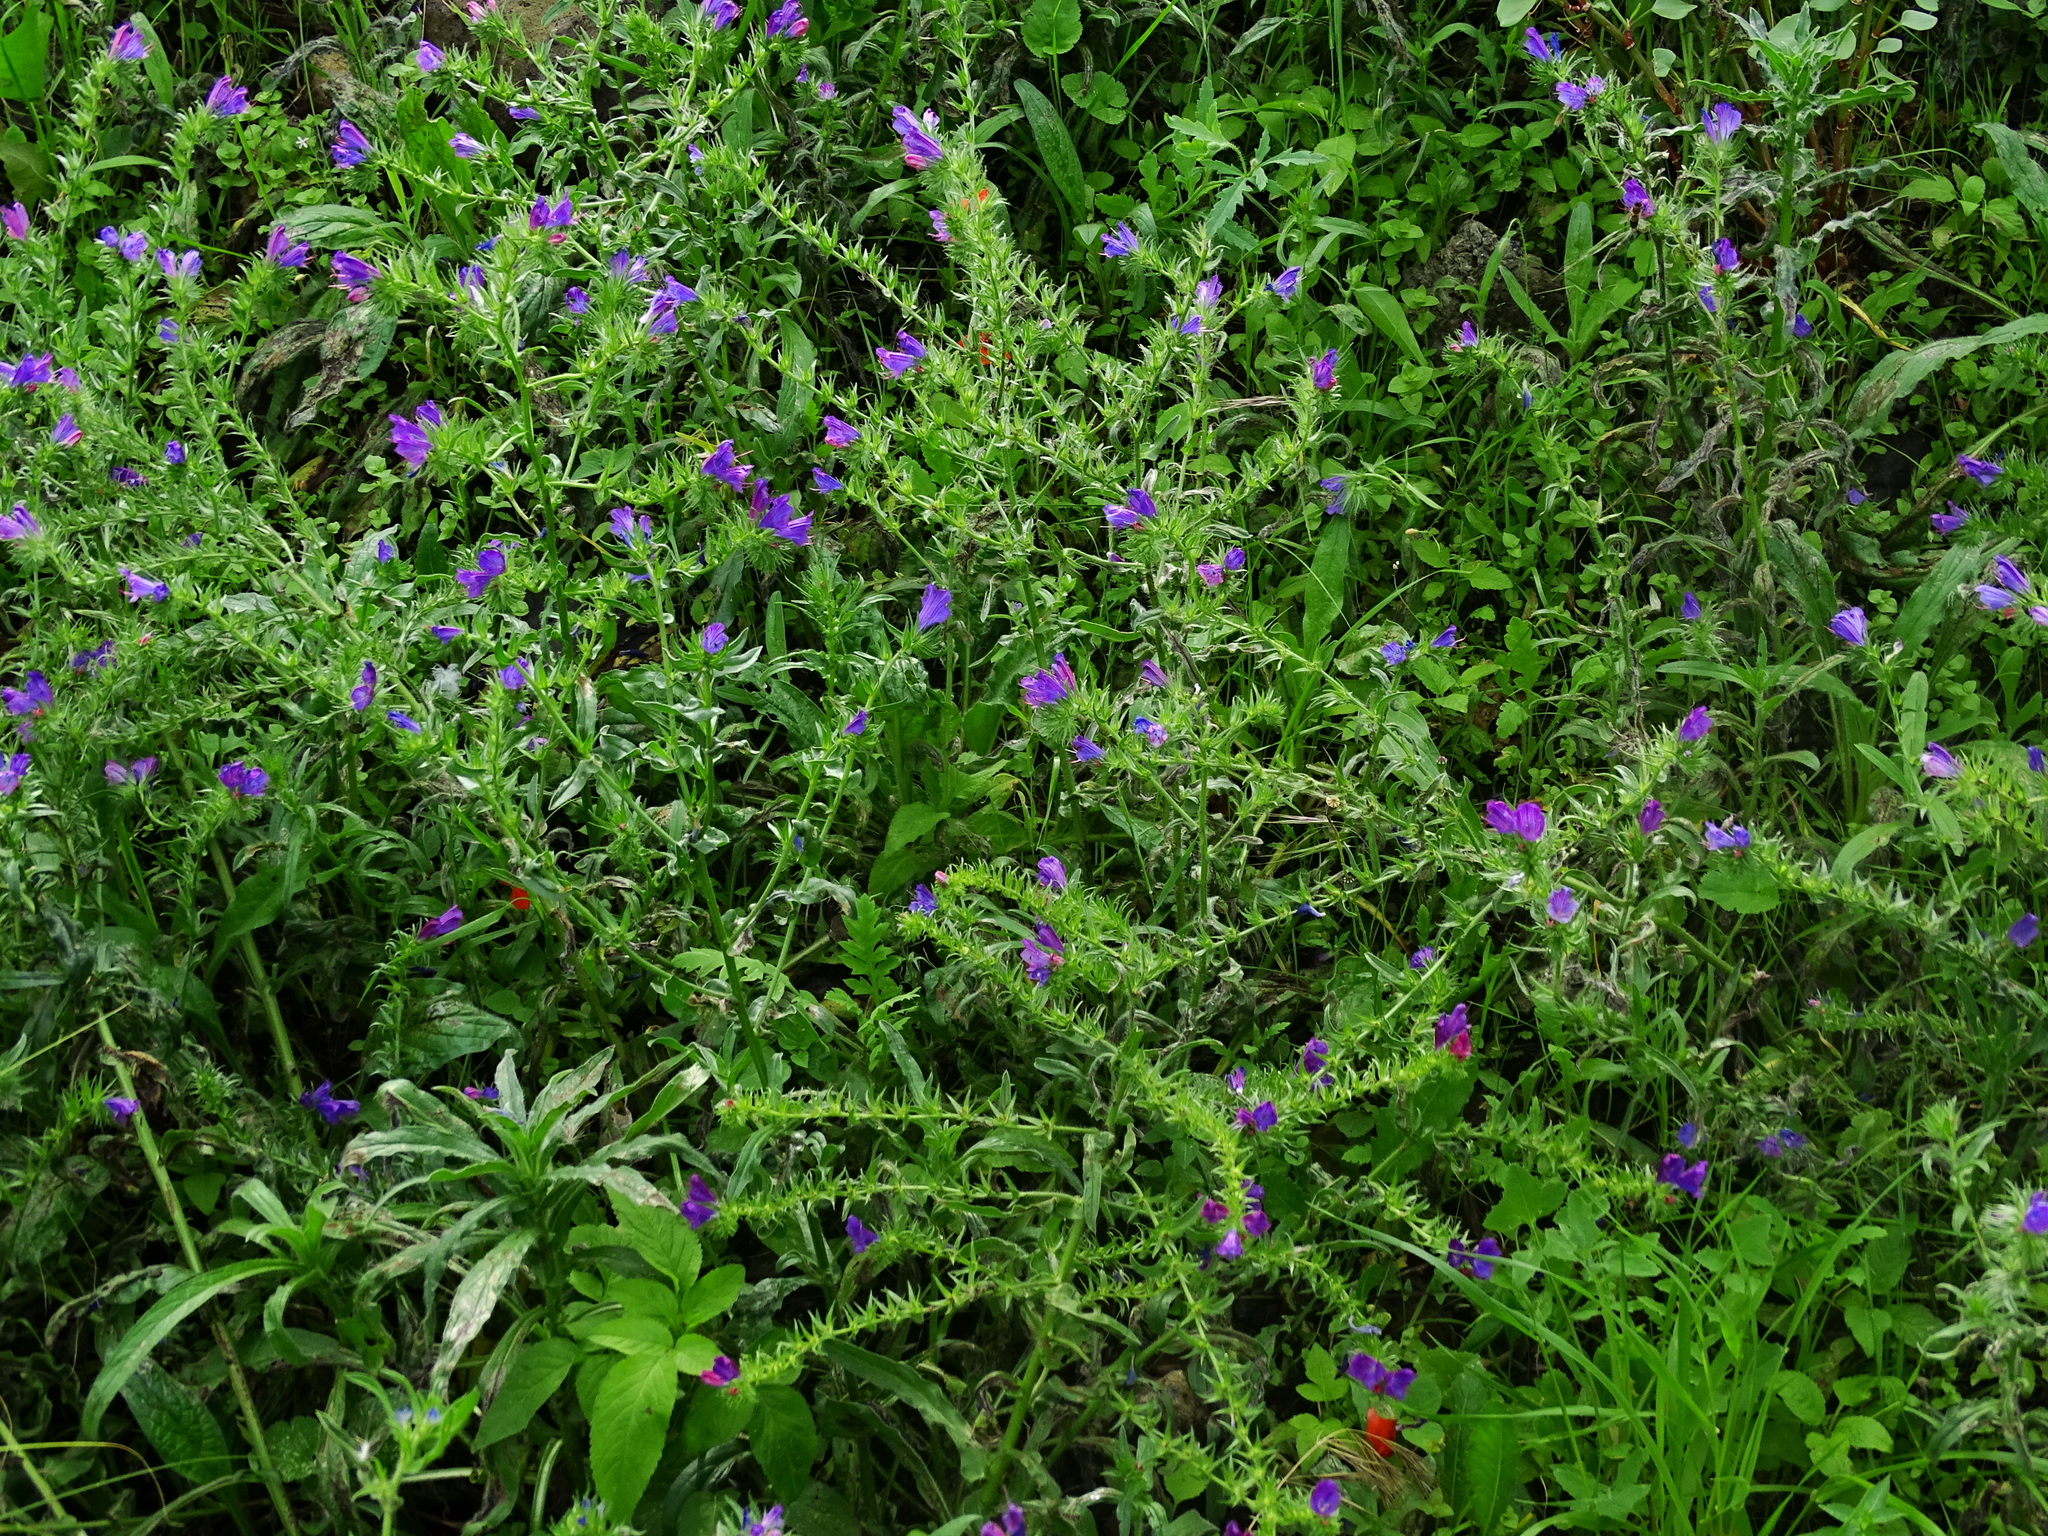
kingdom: Plantae
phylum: Tracheophyta
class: Magnoliopsida
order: Boraginales
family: Boraginaceae
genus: Echium
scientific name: Echium plantagineum
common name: Purple viper's-bugloss
